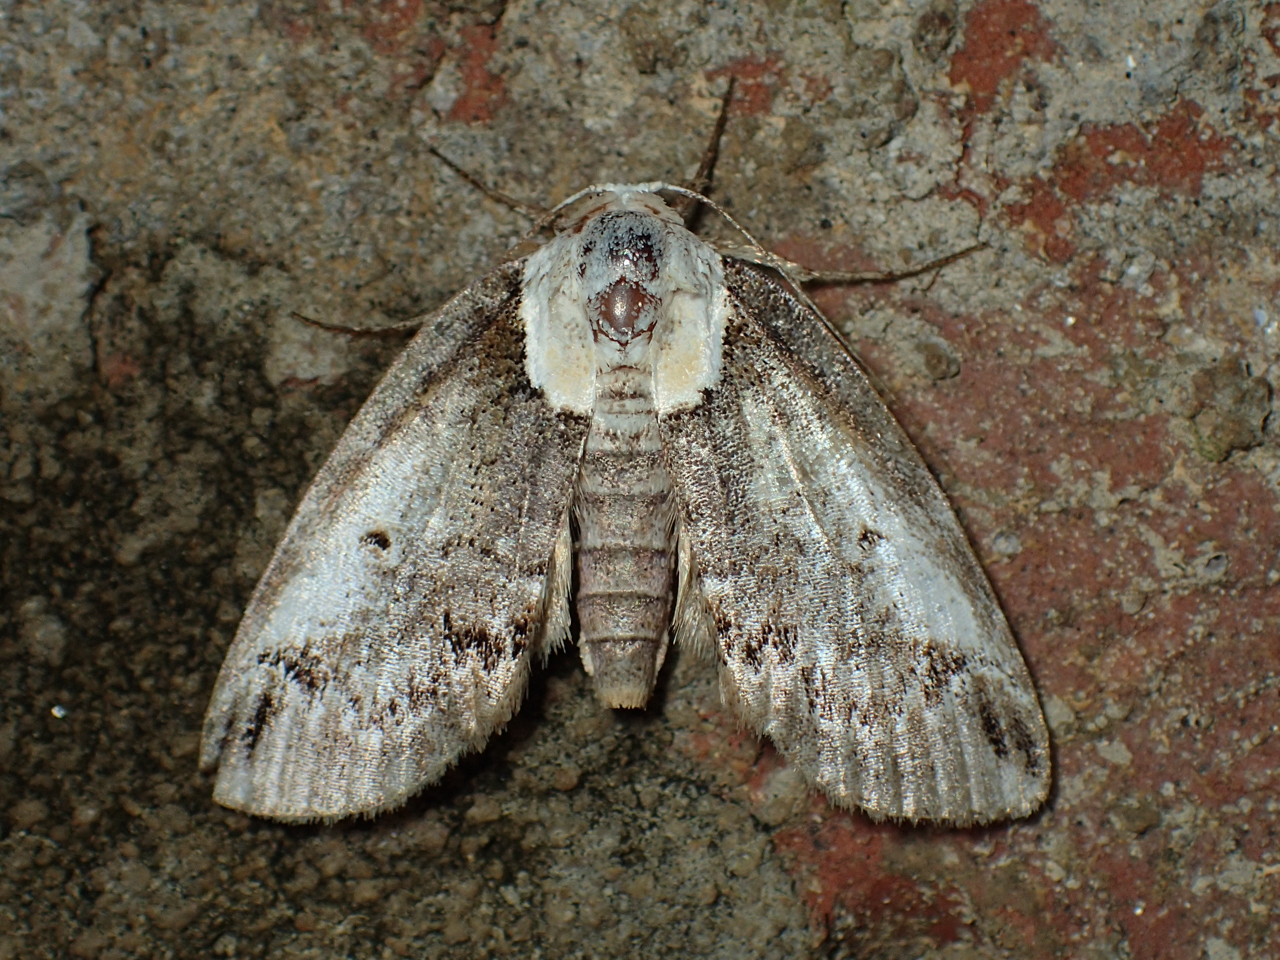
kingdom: Animalia
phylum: Arthropoda
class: Insecta
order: Lepidoptera
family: Nolidae
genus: Baileya
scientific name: Baileya ophthalmica
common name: Eyed baileya moth
